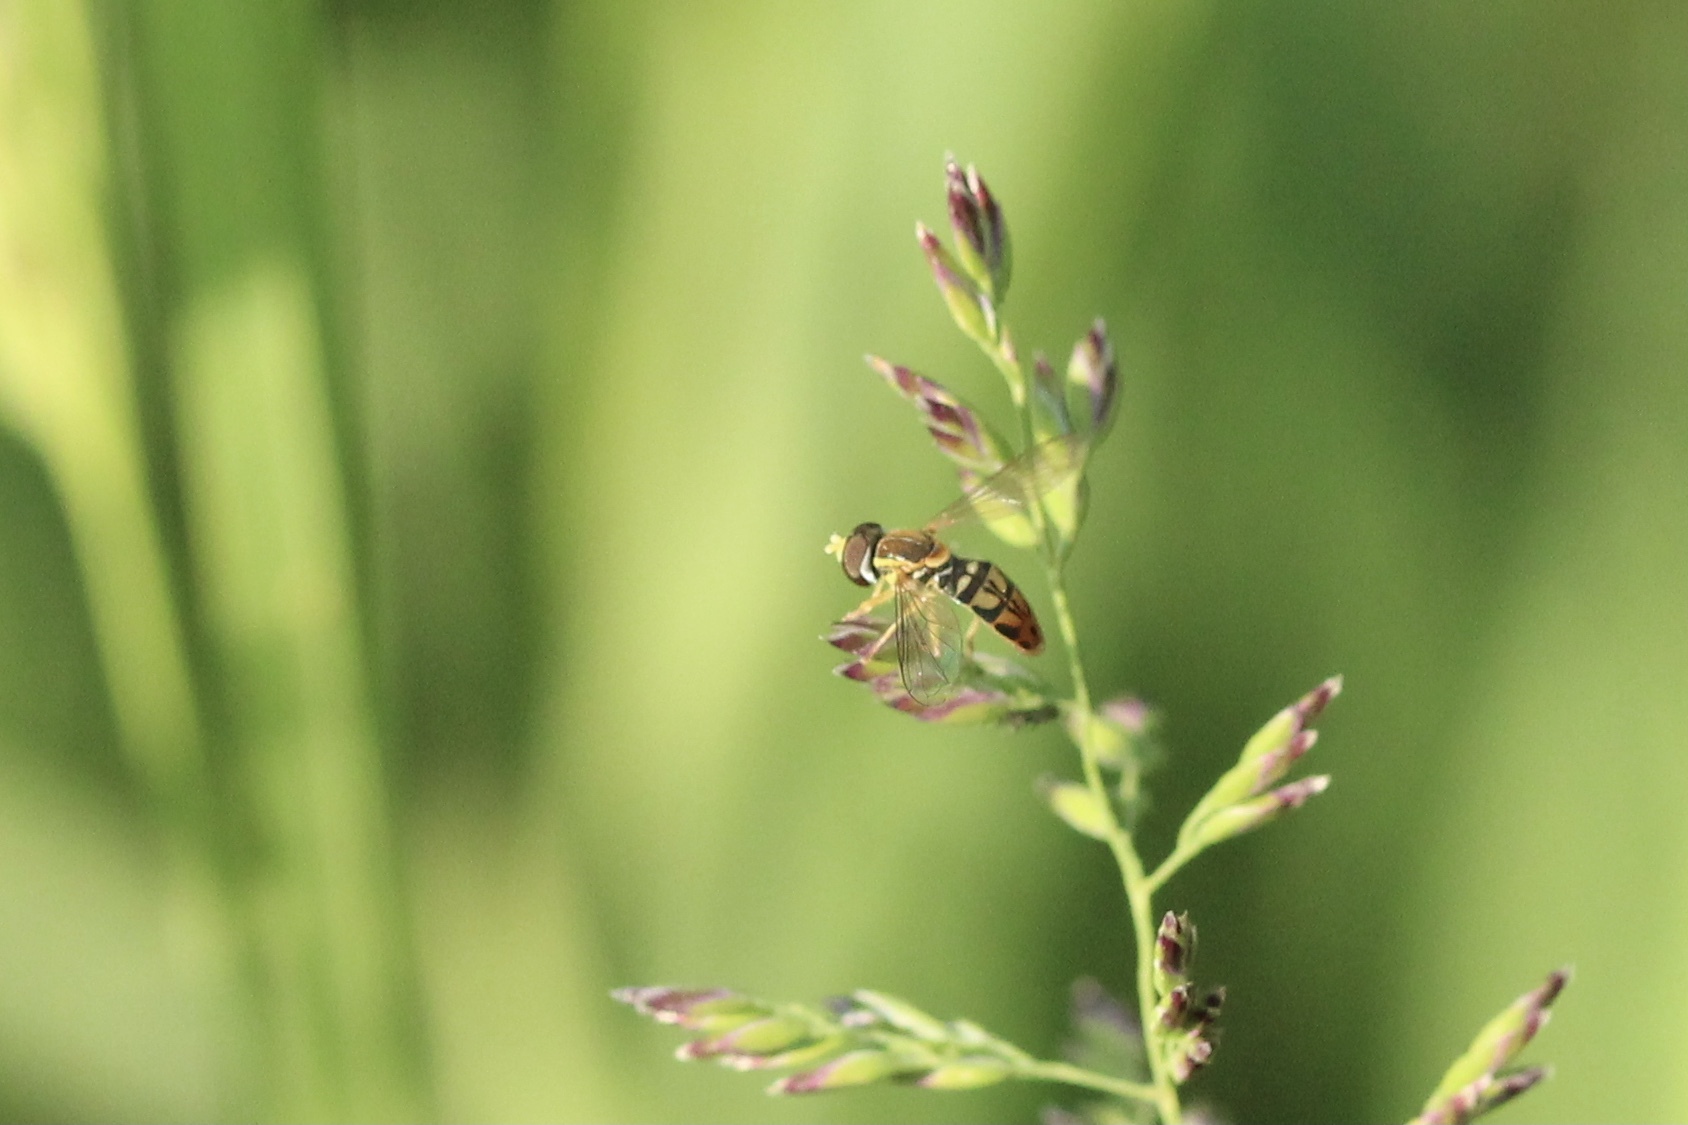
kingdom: Animalia
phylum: Arthropoda
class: Insecta
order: Diptera
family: Syrphidae
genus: Toxomerus
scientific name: Toxomerus marginatus
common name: Syrphid fly
